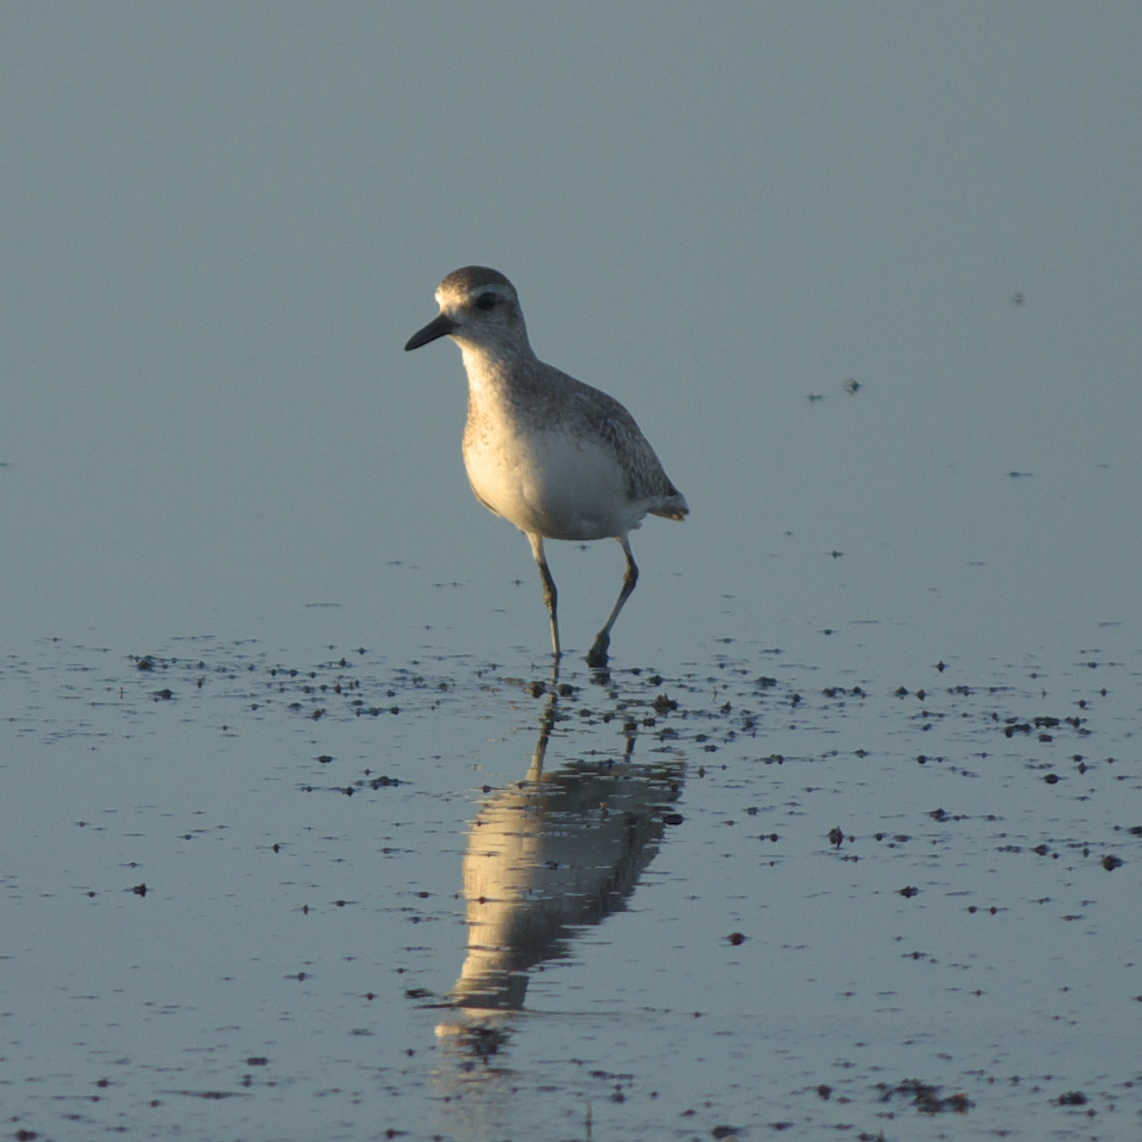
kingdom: Animalia
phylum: Chordata
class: Aves
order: Charadriiformes
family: Charadriidae
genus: Pluvialis
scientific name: Pluvialis squatarola
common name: Grey plover
